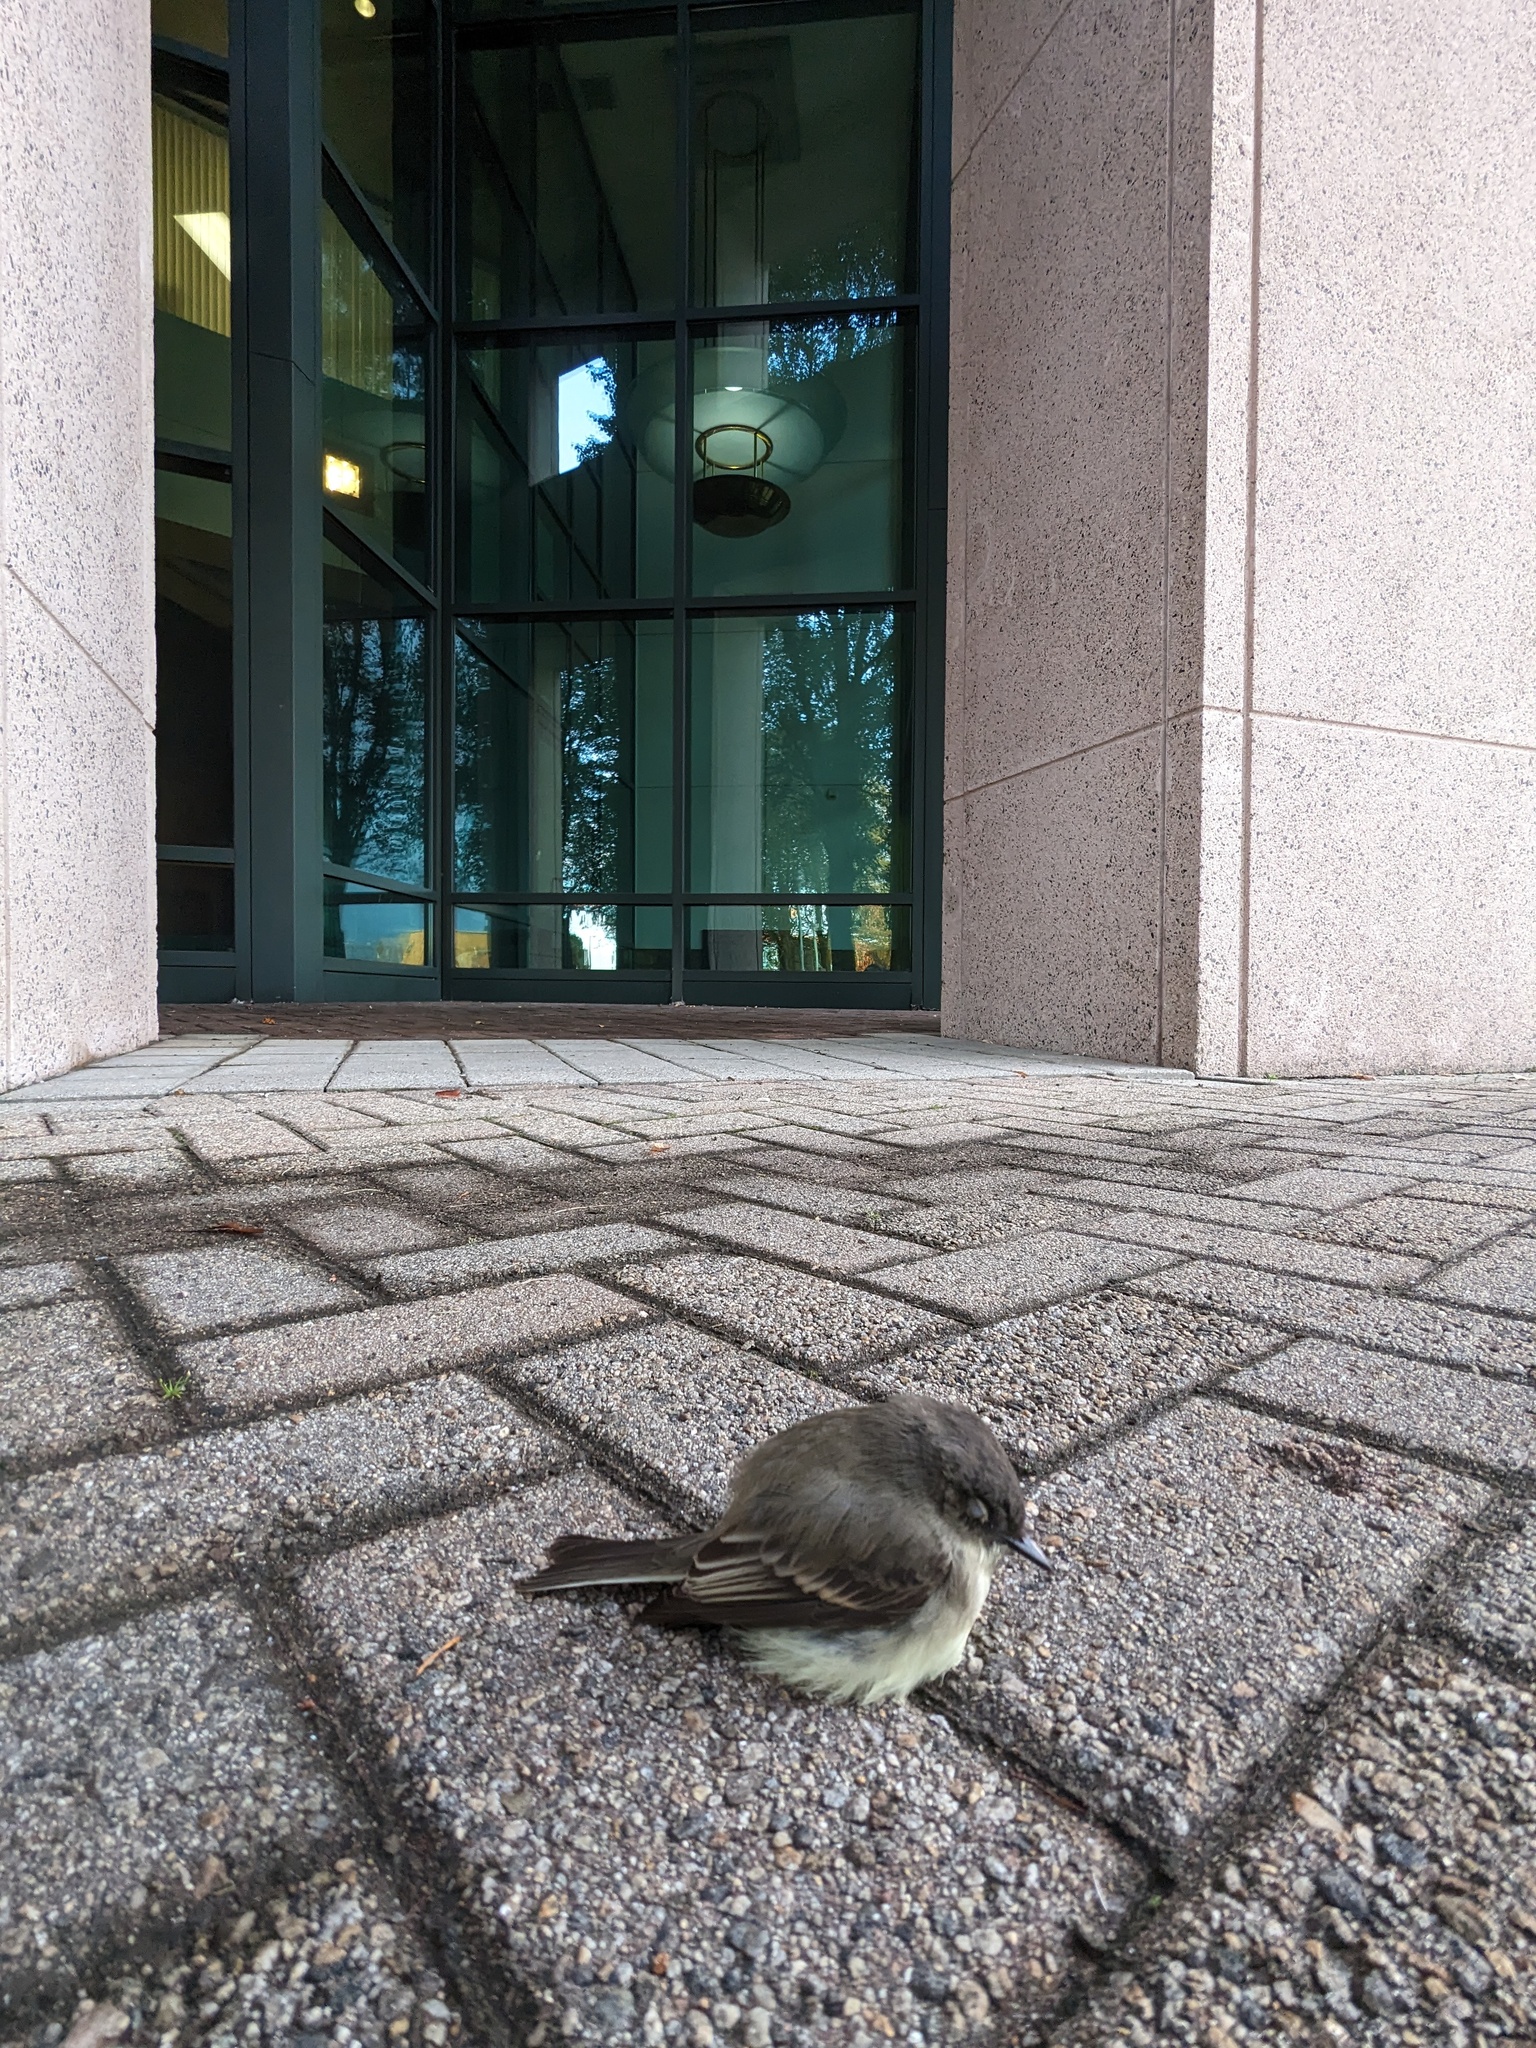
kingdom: Animalia
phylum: Chordata
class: Aves
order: Passeriformes
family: Tyrannidae
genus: Sayornis
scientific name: Sayornis phoebe
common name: Eastern phoebe
